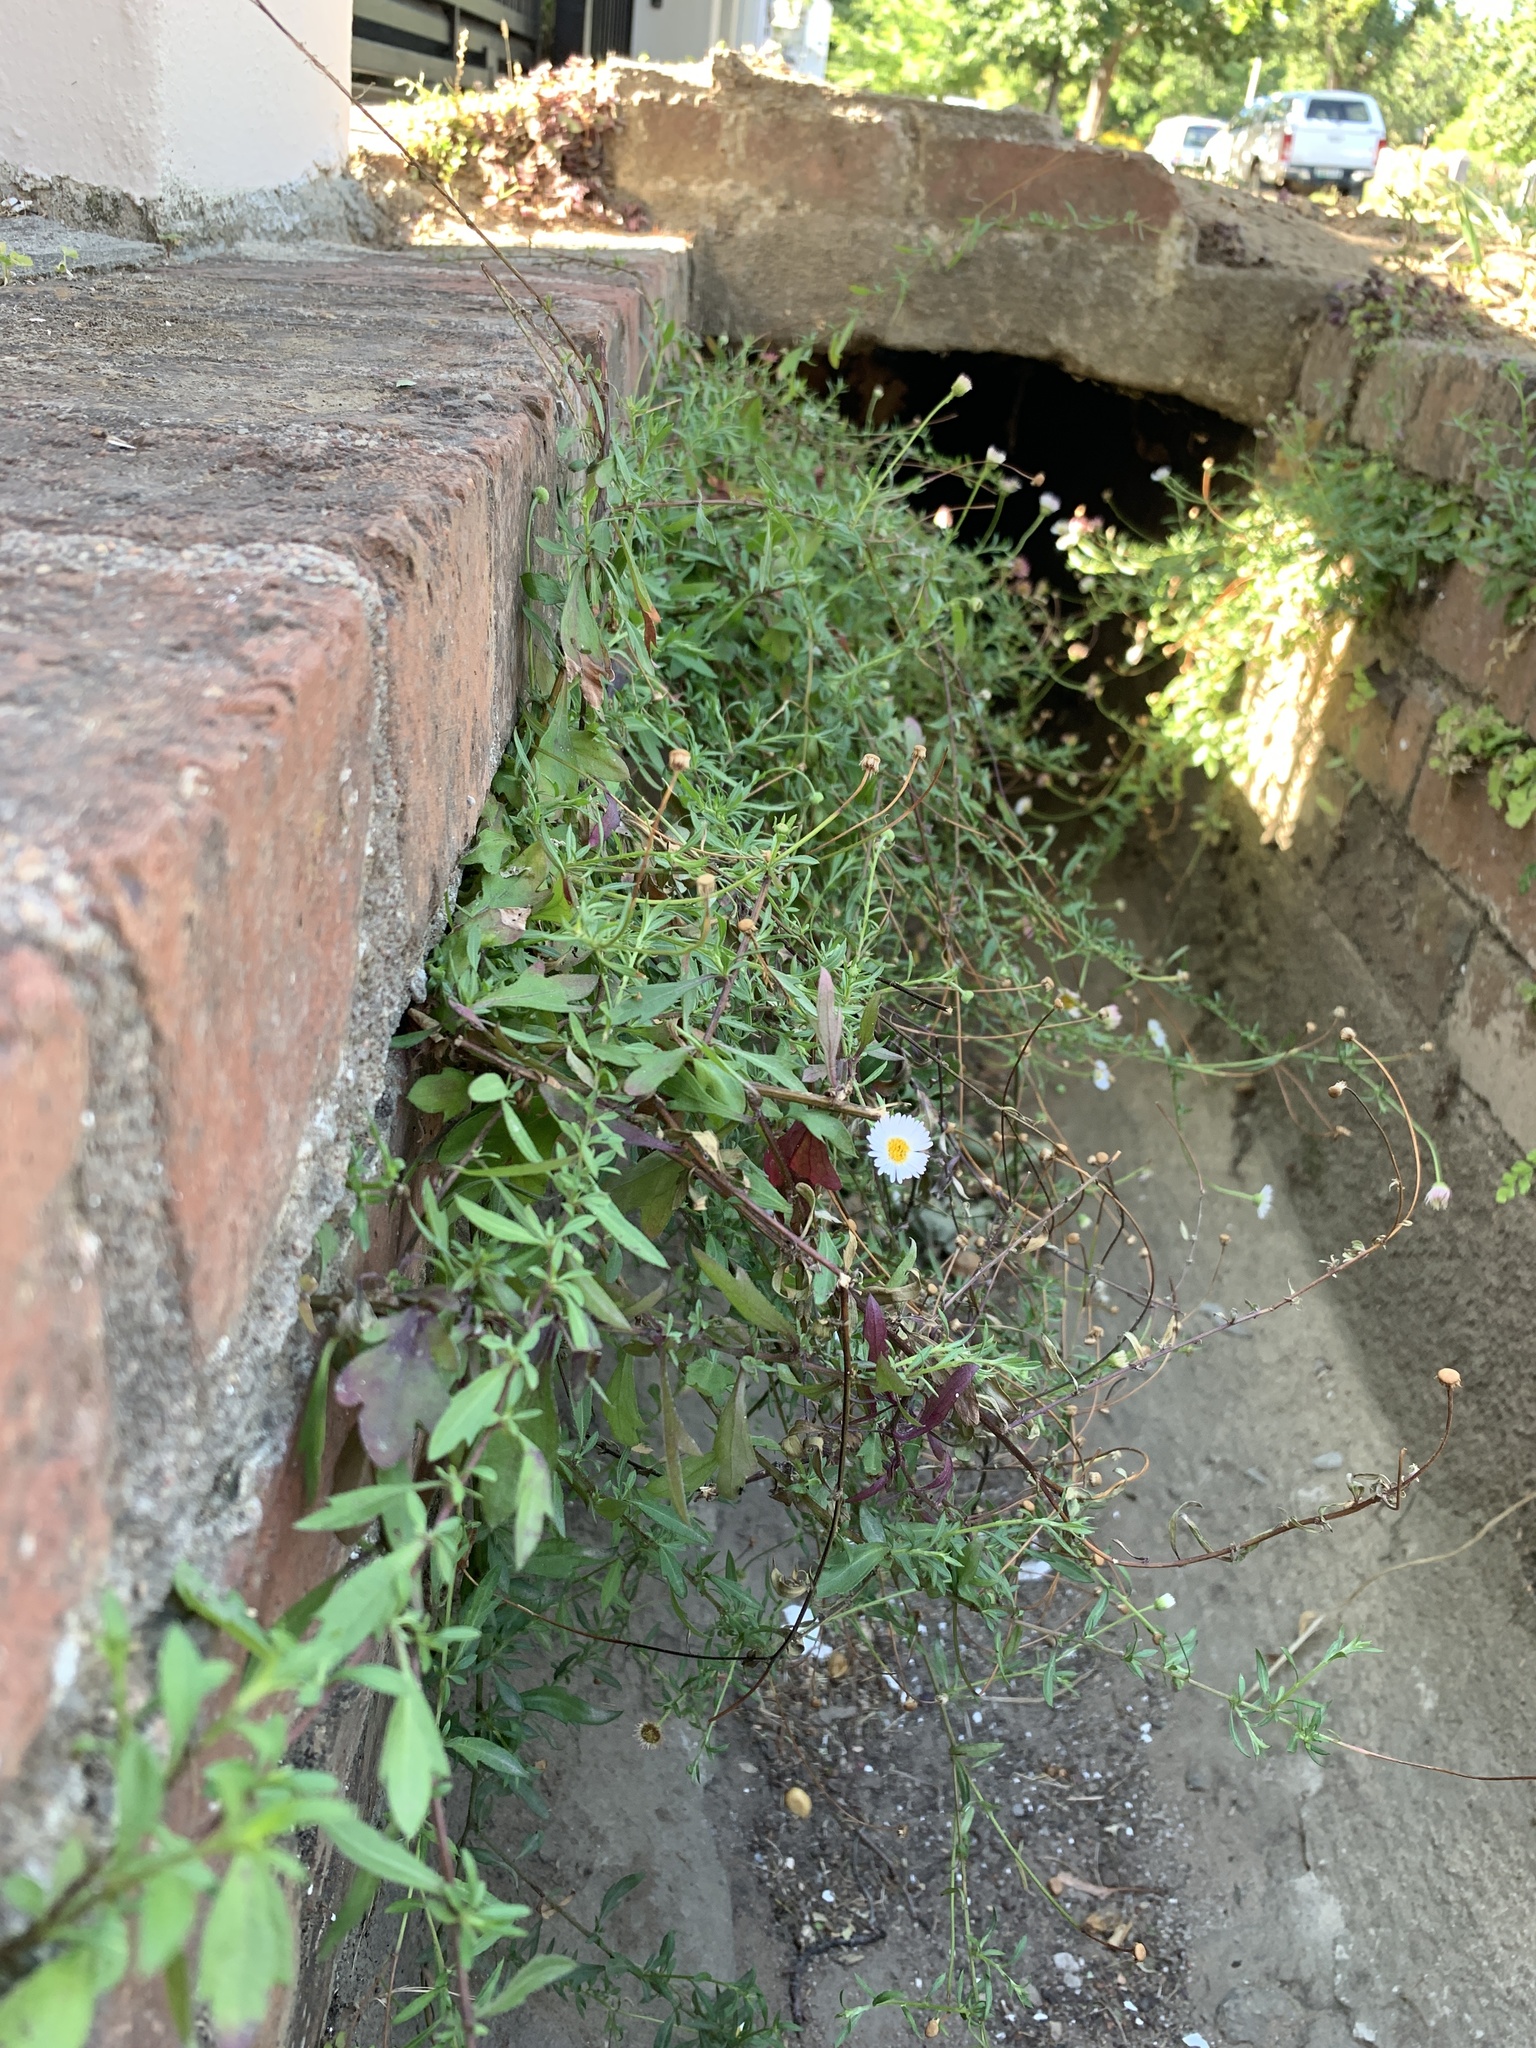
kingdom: Plantae
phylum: Tracheophyta
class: Magnoliopsida
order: Asterales
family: Asteraceae
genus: Erigeron
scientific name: Erigeron karvinskianus
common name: Mexican fleabane
